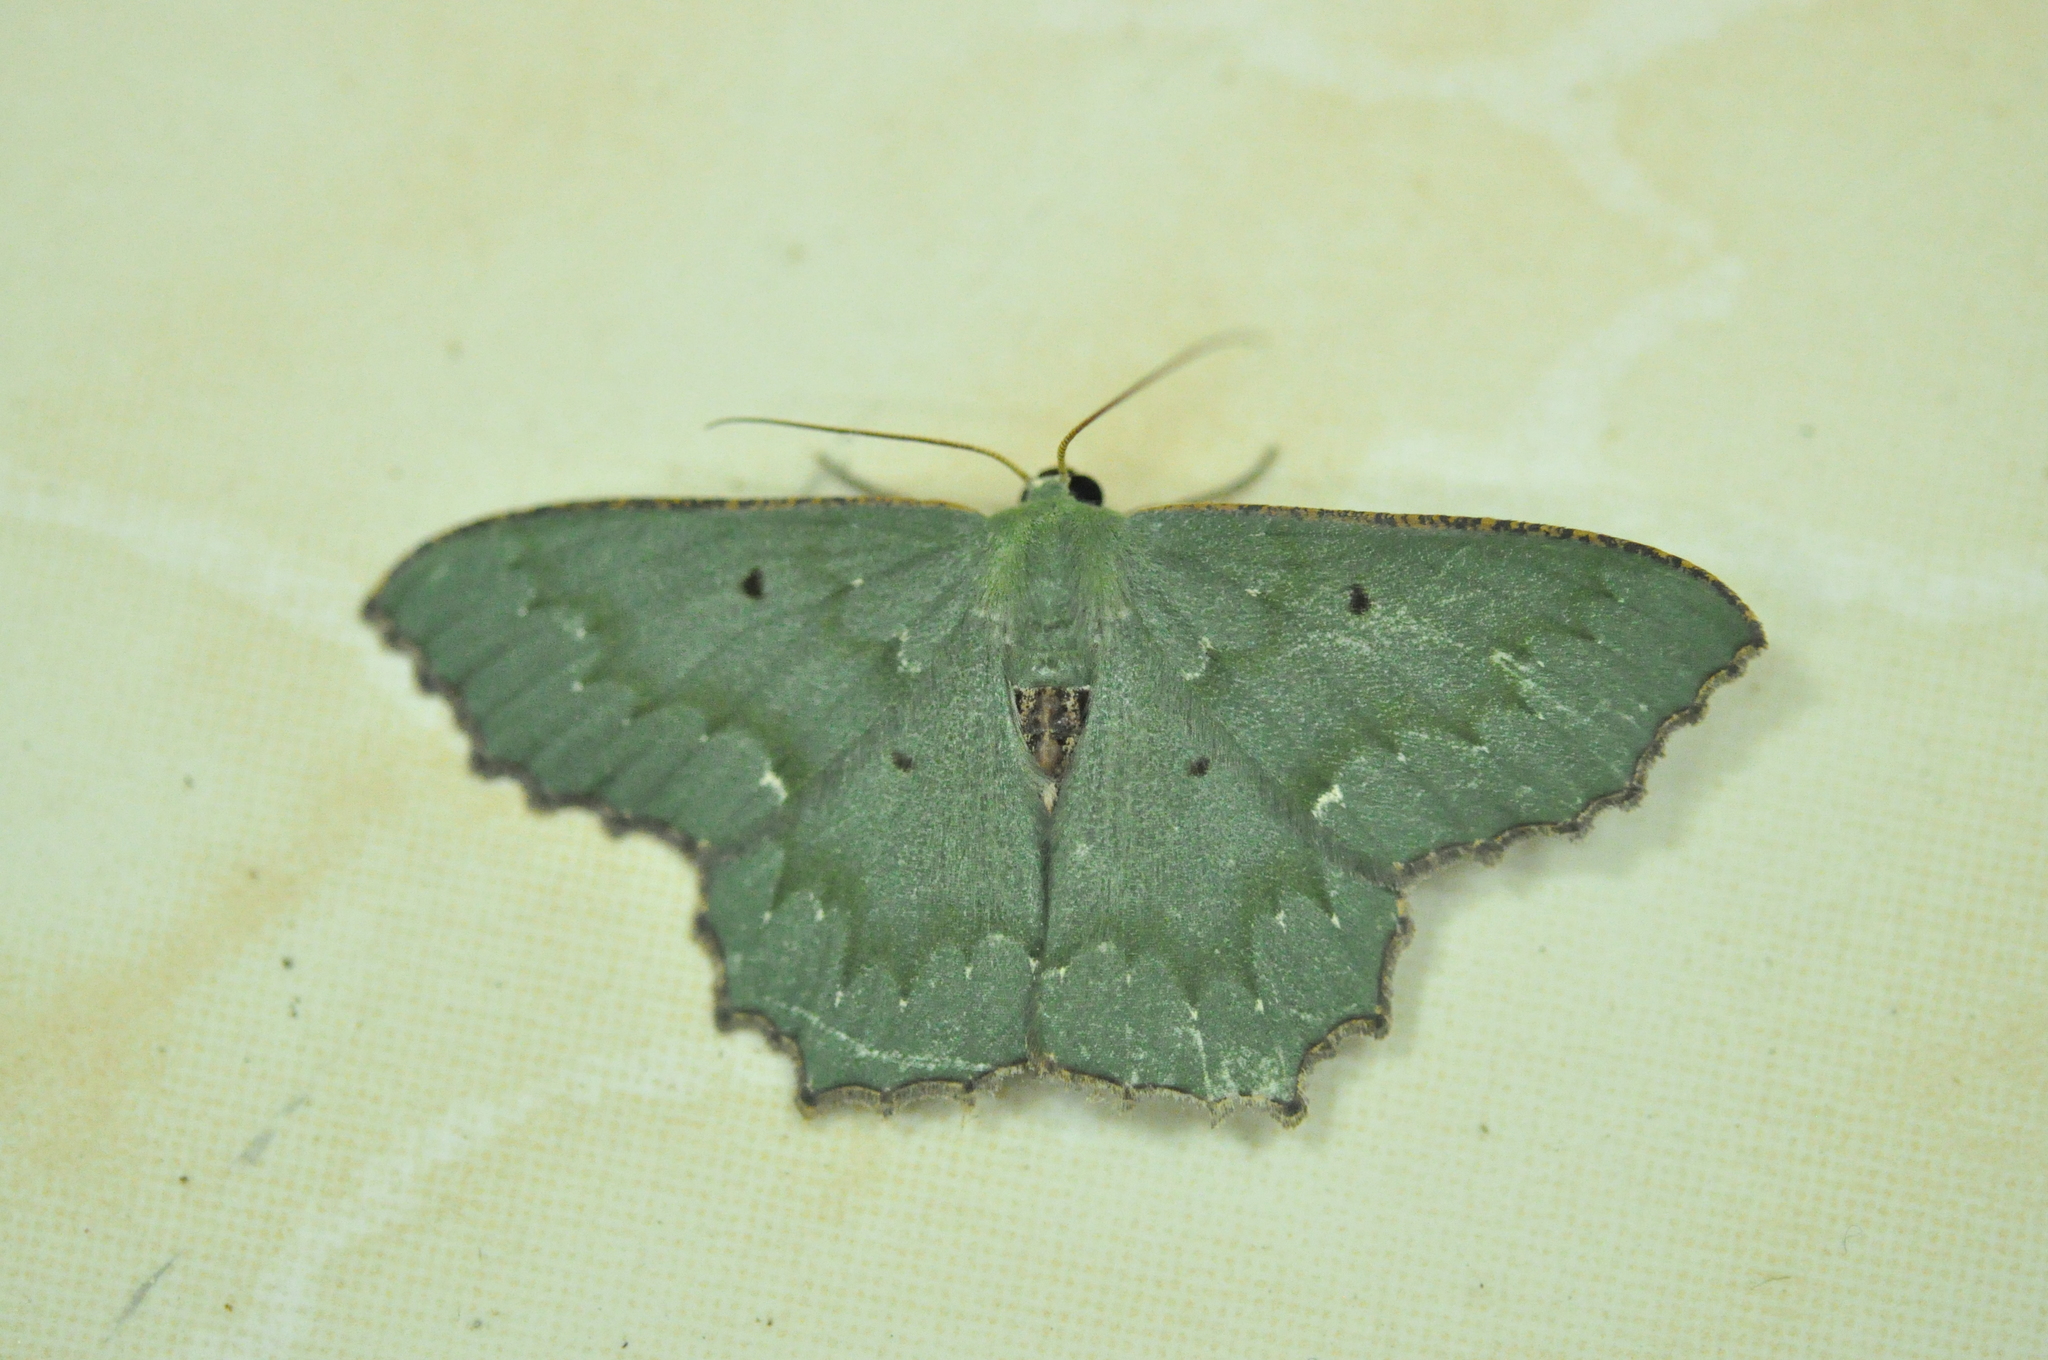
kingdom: Animalia
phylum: Arthropoda
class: Insecta
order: Lepidoptera
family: Geometridae
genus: Episothalma
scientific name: Episothalma robustaria
